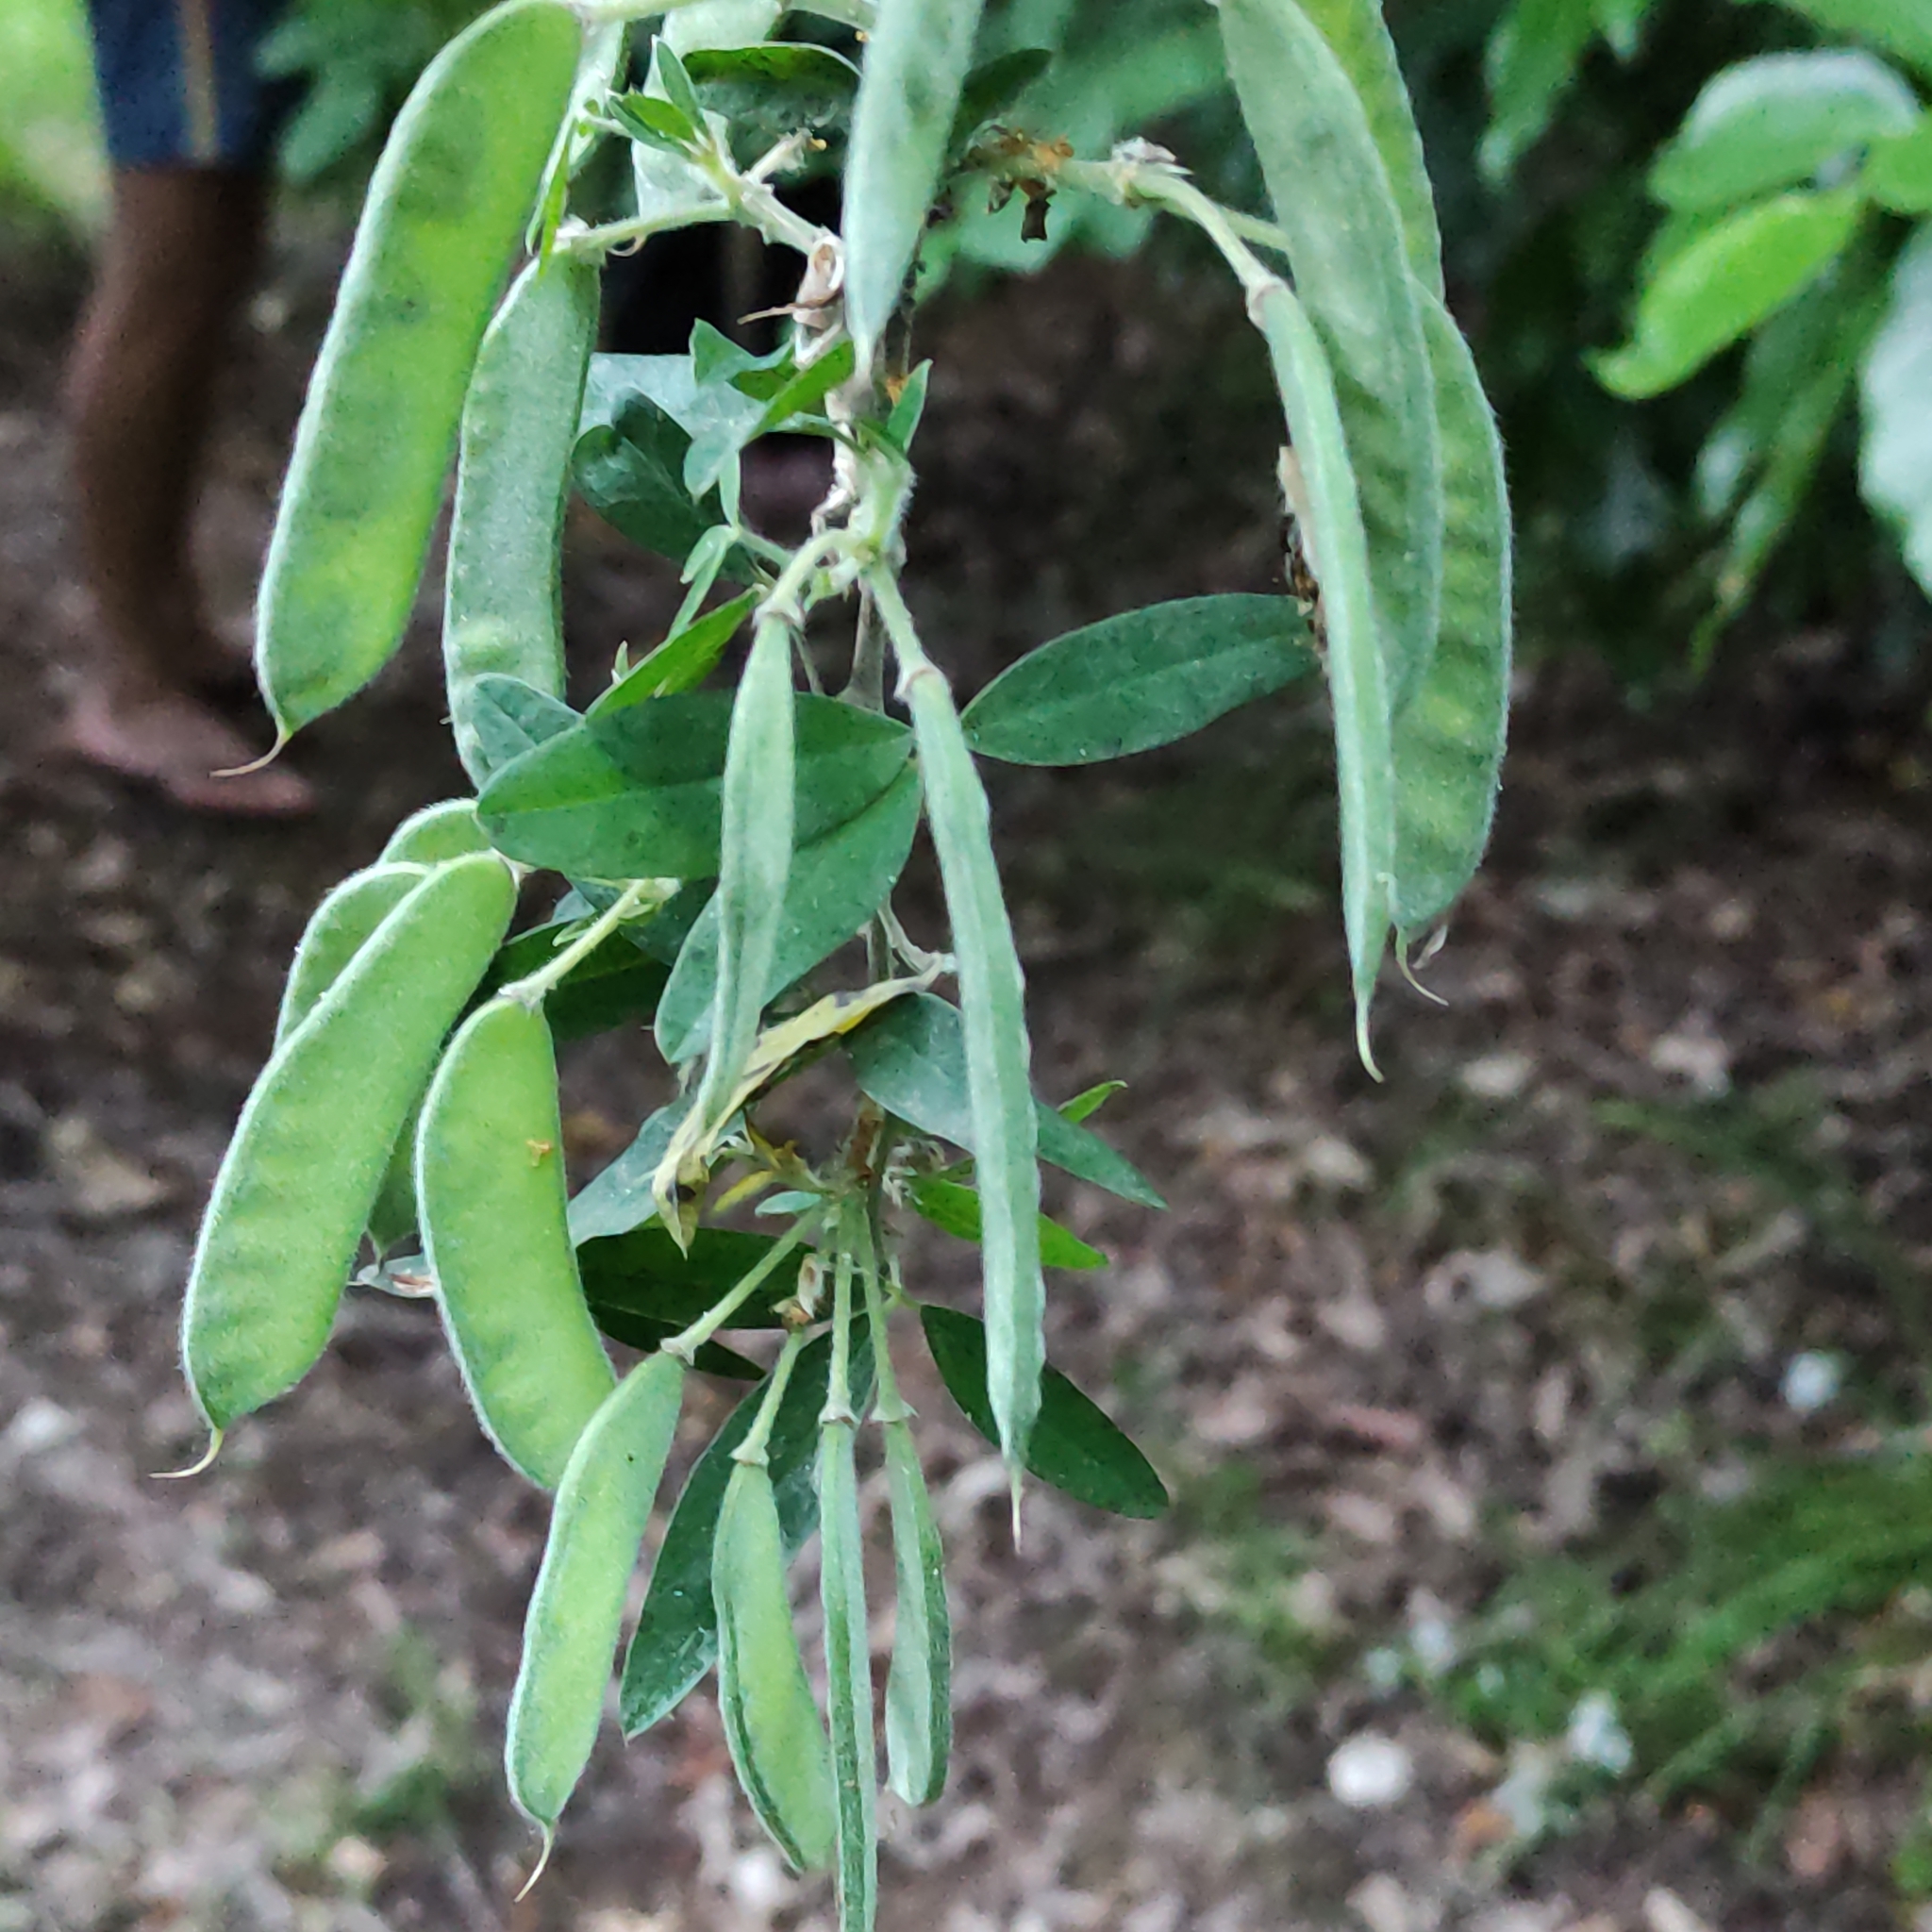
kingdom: Plantae
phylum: Tracheophyta
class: Magnoliopsida
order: Fabales
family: Fabaceae
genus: Chamaecytisus
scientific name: Chamaecytisus prolifer
